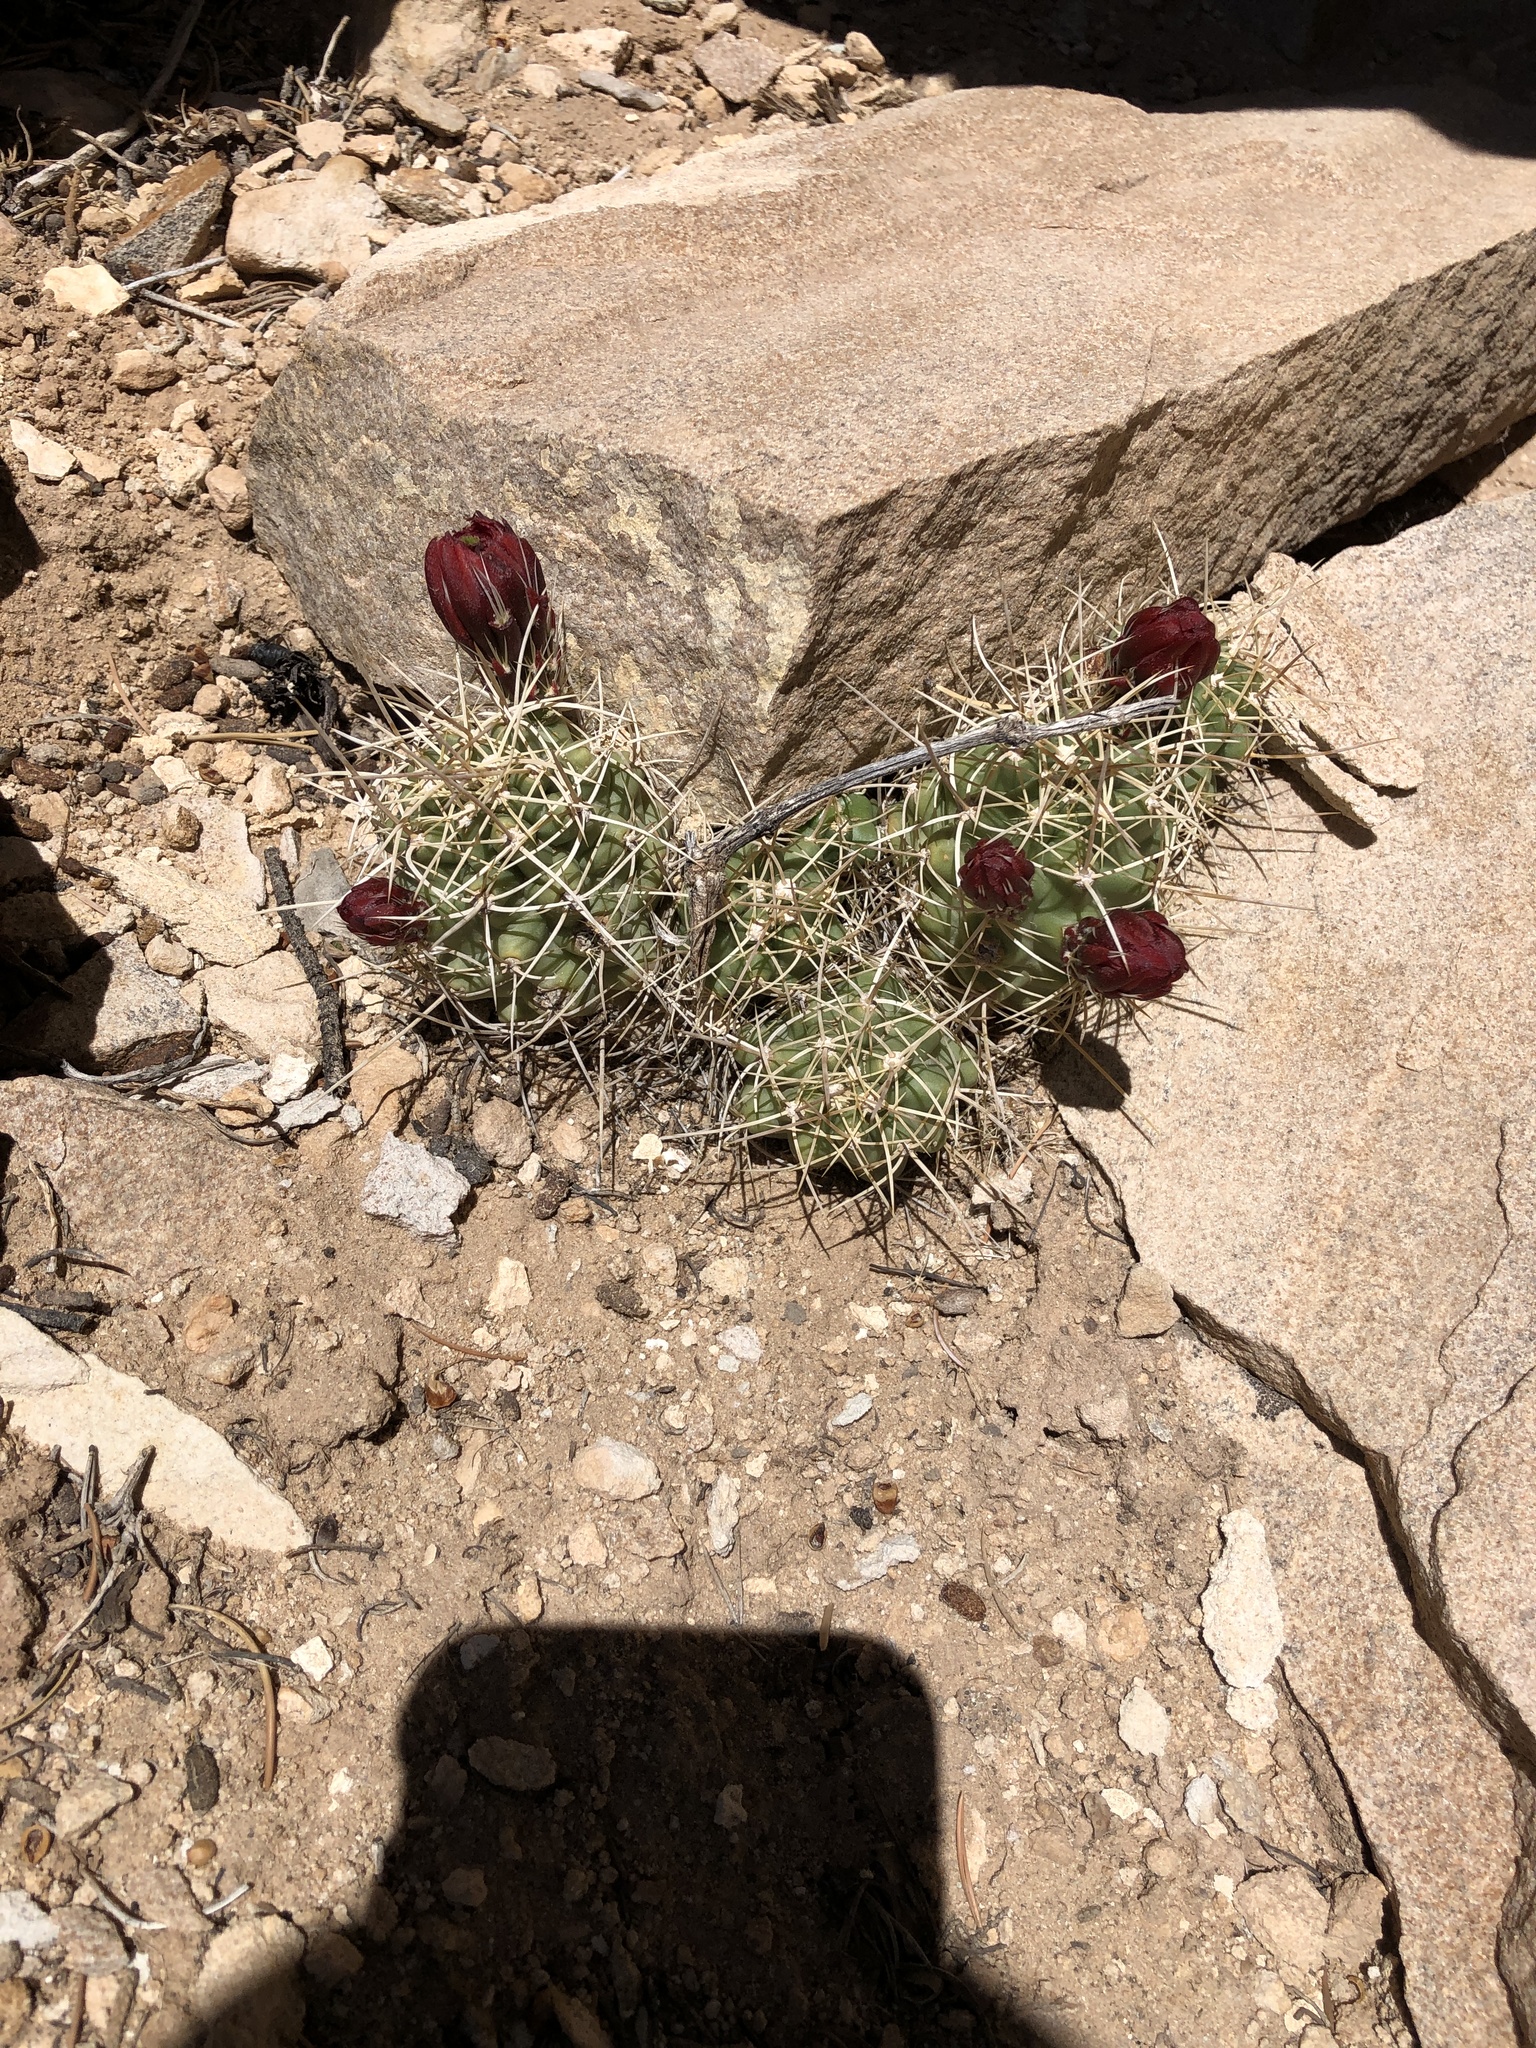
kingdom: Plantae
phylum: Tracheophyta
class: Magnoliopsida
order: Caryophyllales
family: Cactaceae
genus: Echinocereus
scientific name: Echinocereus triglochidiatus
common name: Claretcup hedgehog
